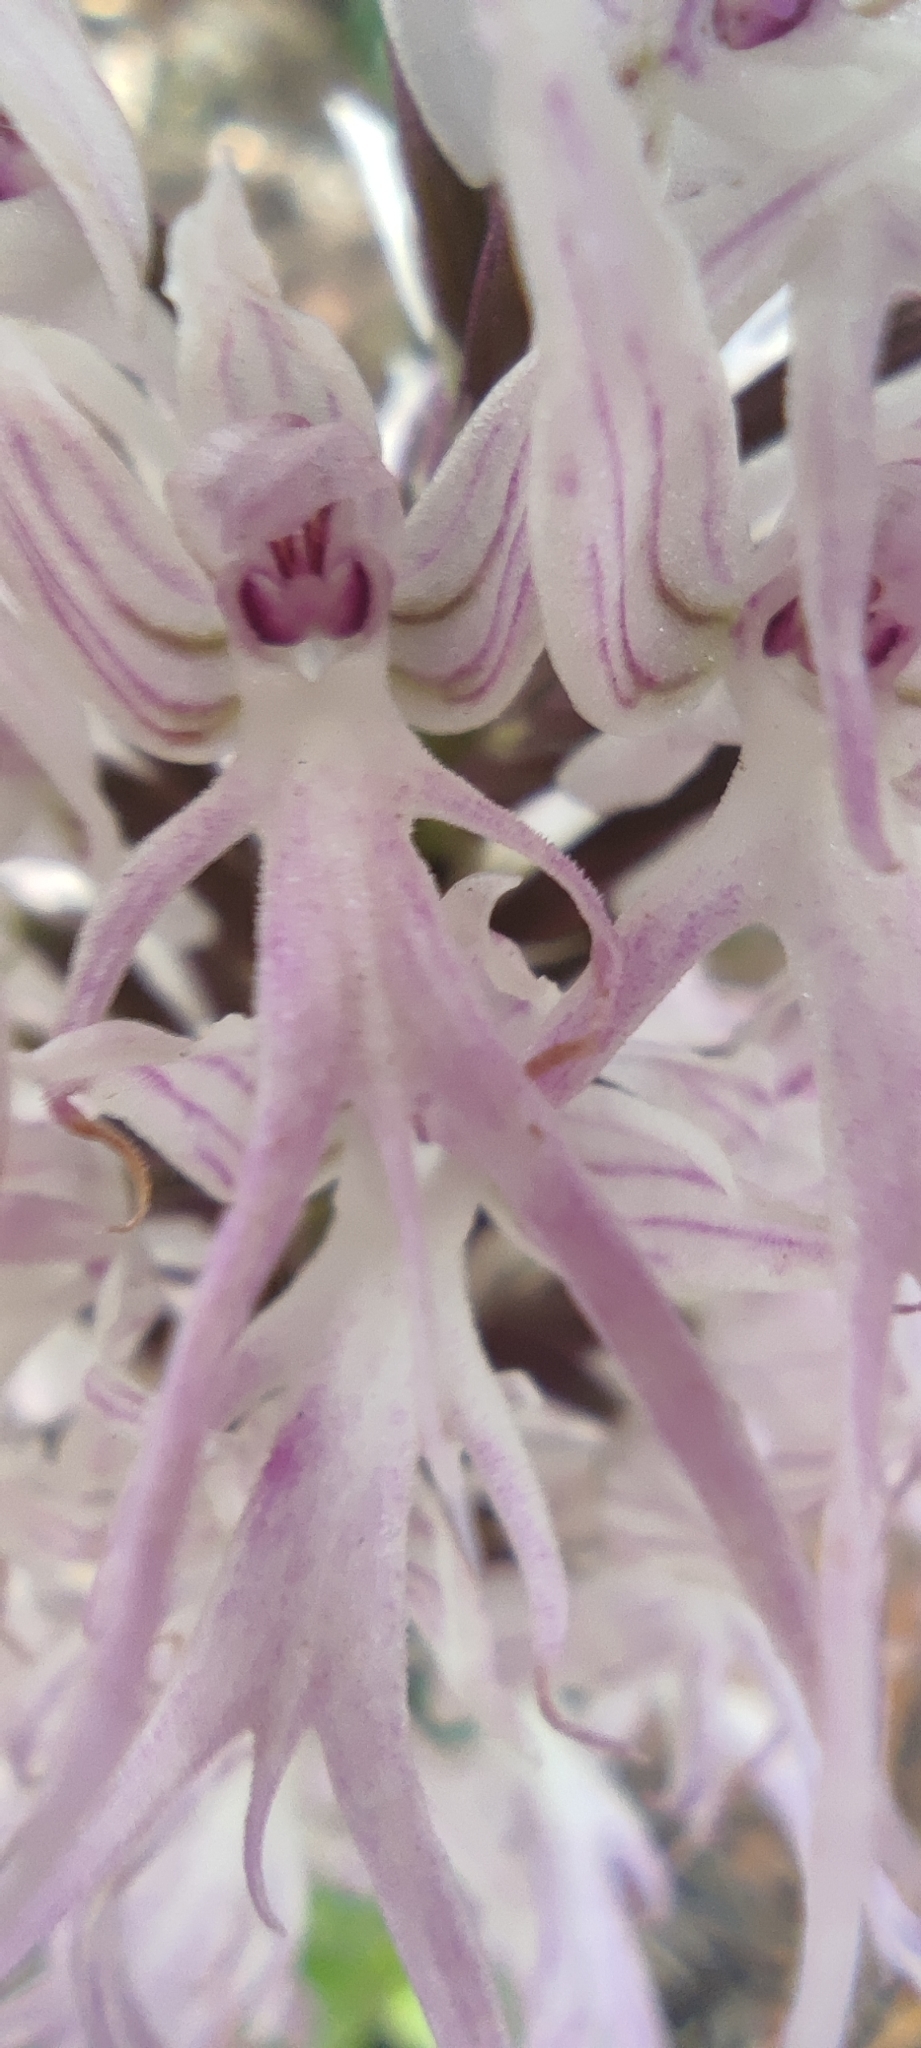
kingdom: Plantae
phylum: Tracheophyta
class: Liliopsida
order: Asparagales
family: Orchidaceae
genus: Orchis
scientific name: Orchis italica
